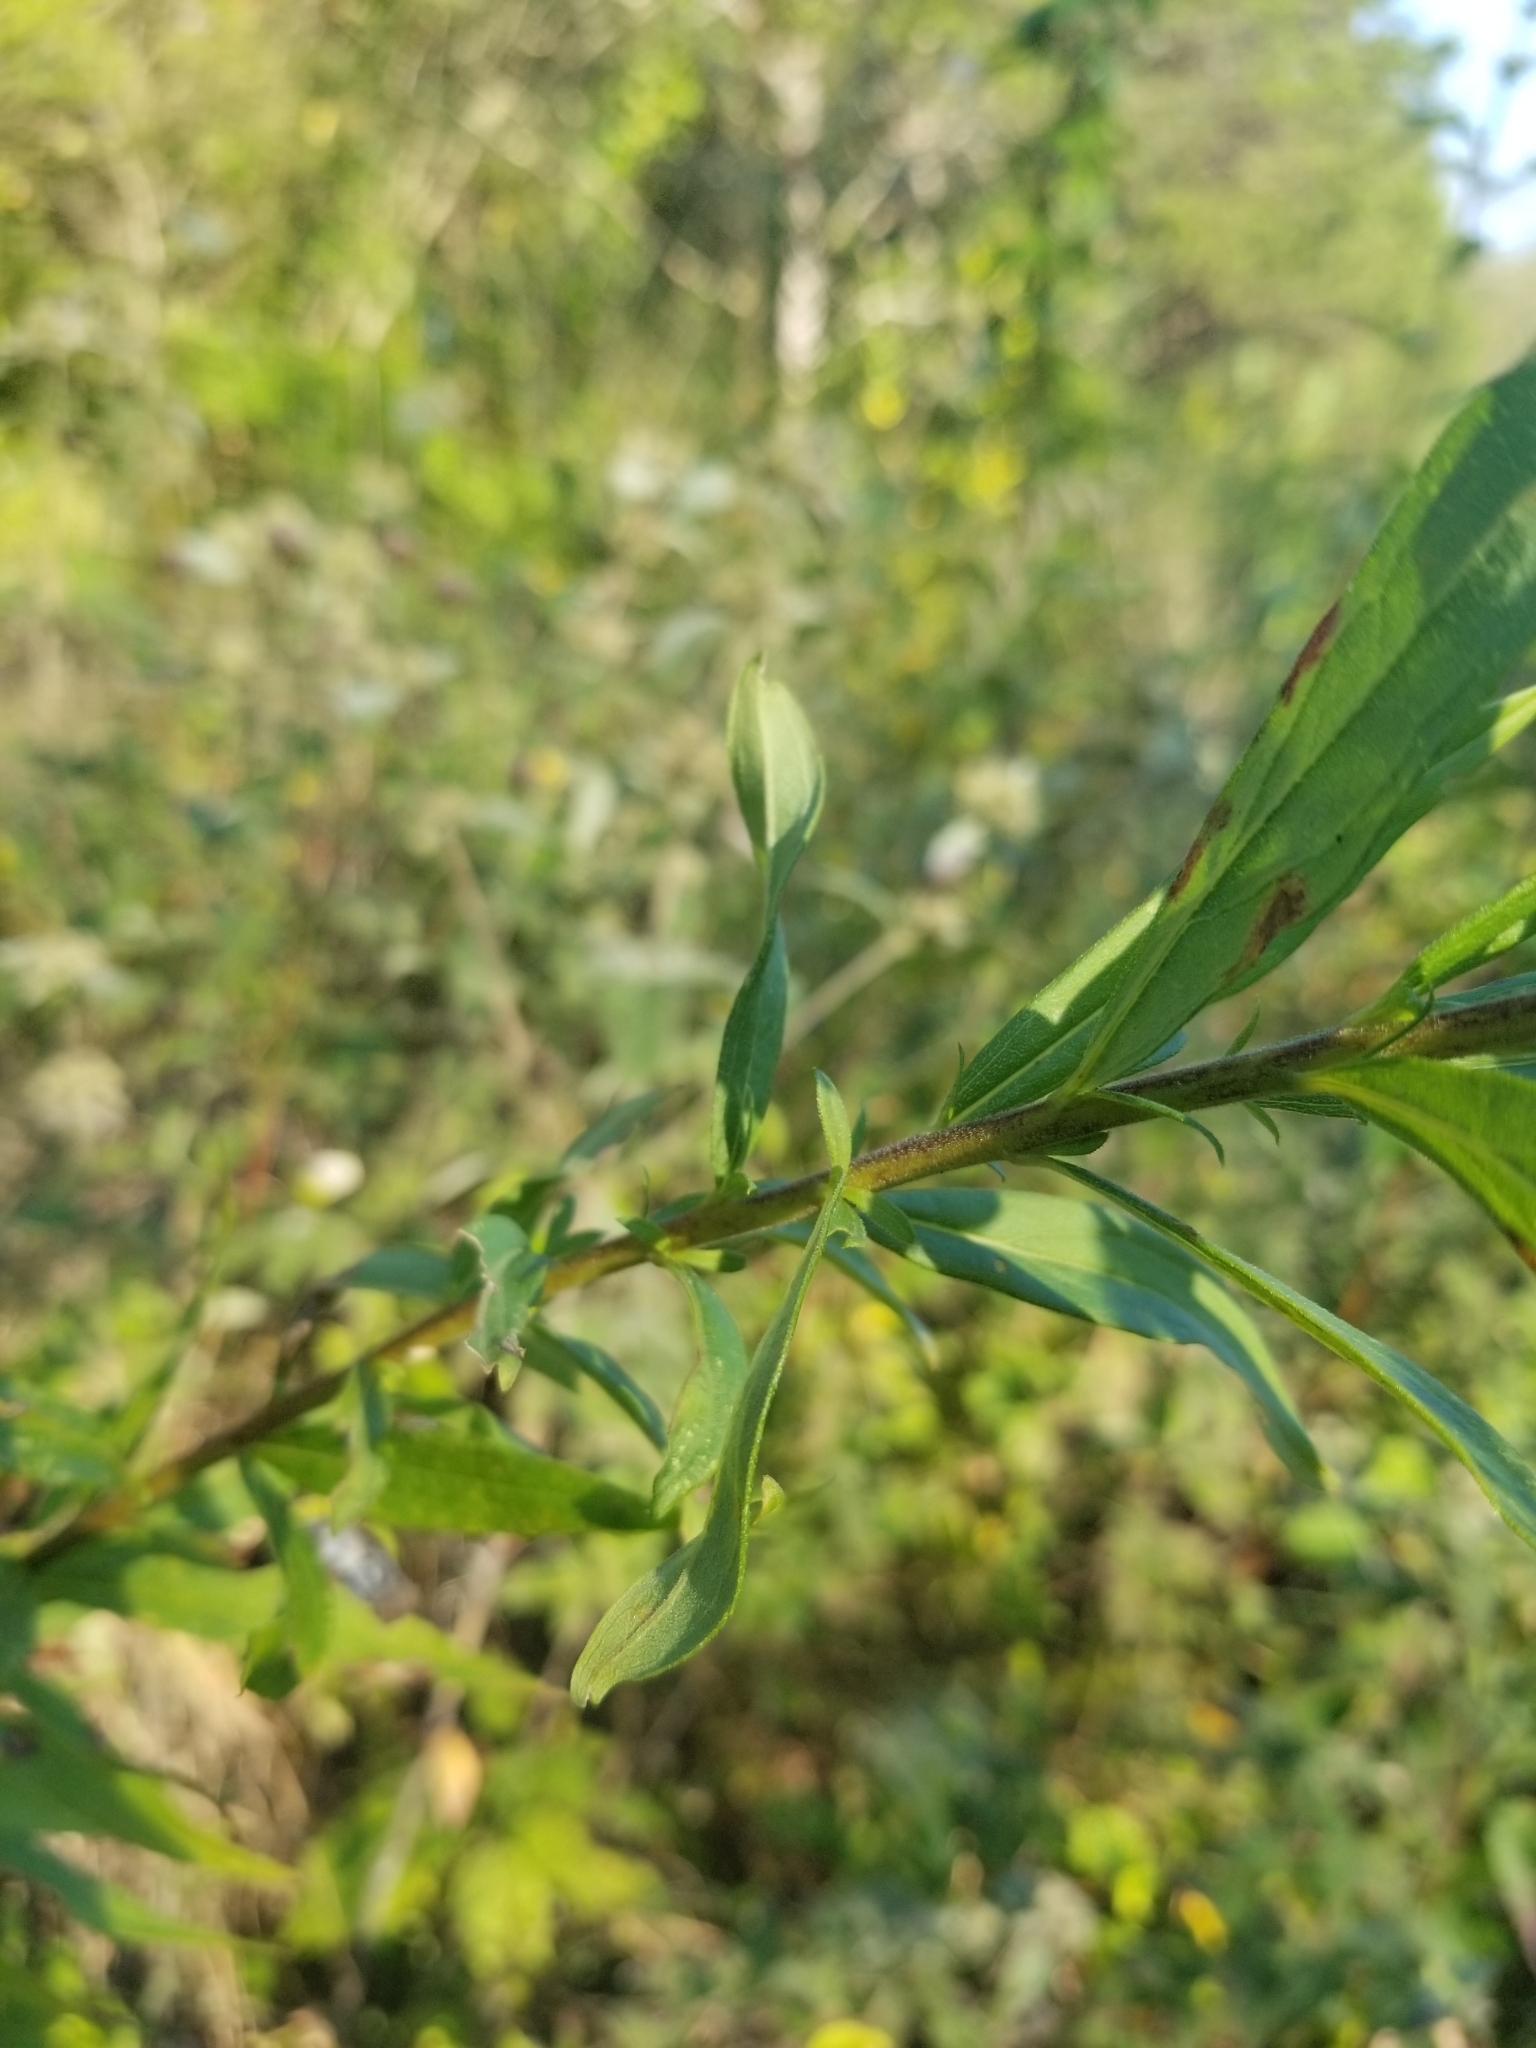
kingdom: Plantae
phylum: Tracheophyta
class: Magnoliopsida
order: Asterales
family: Asteraceae
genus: Solidago
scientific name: Solidago altissima
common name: Late goldenrod
